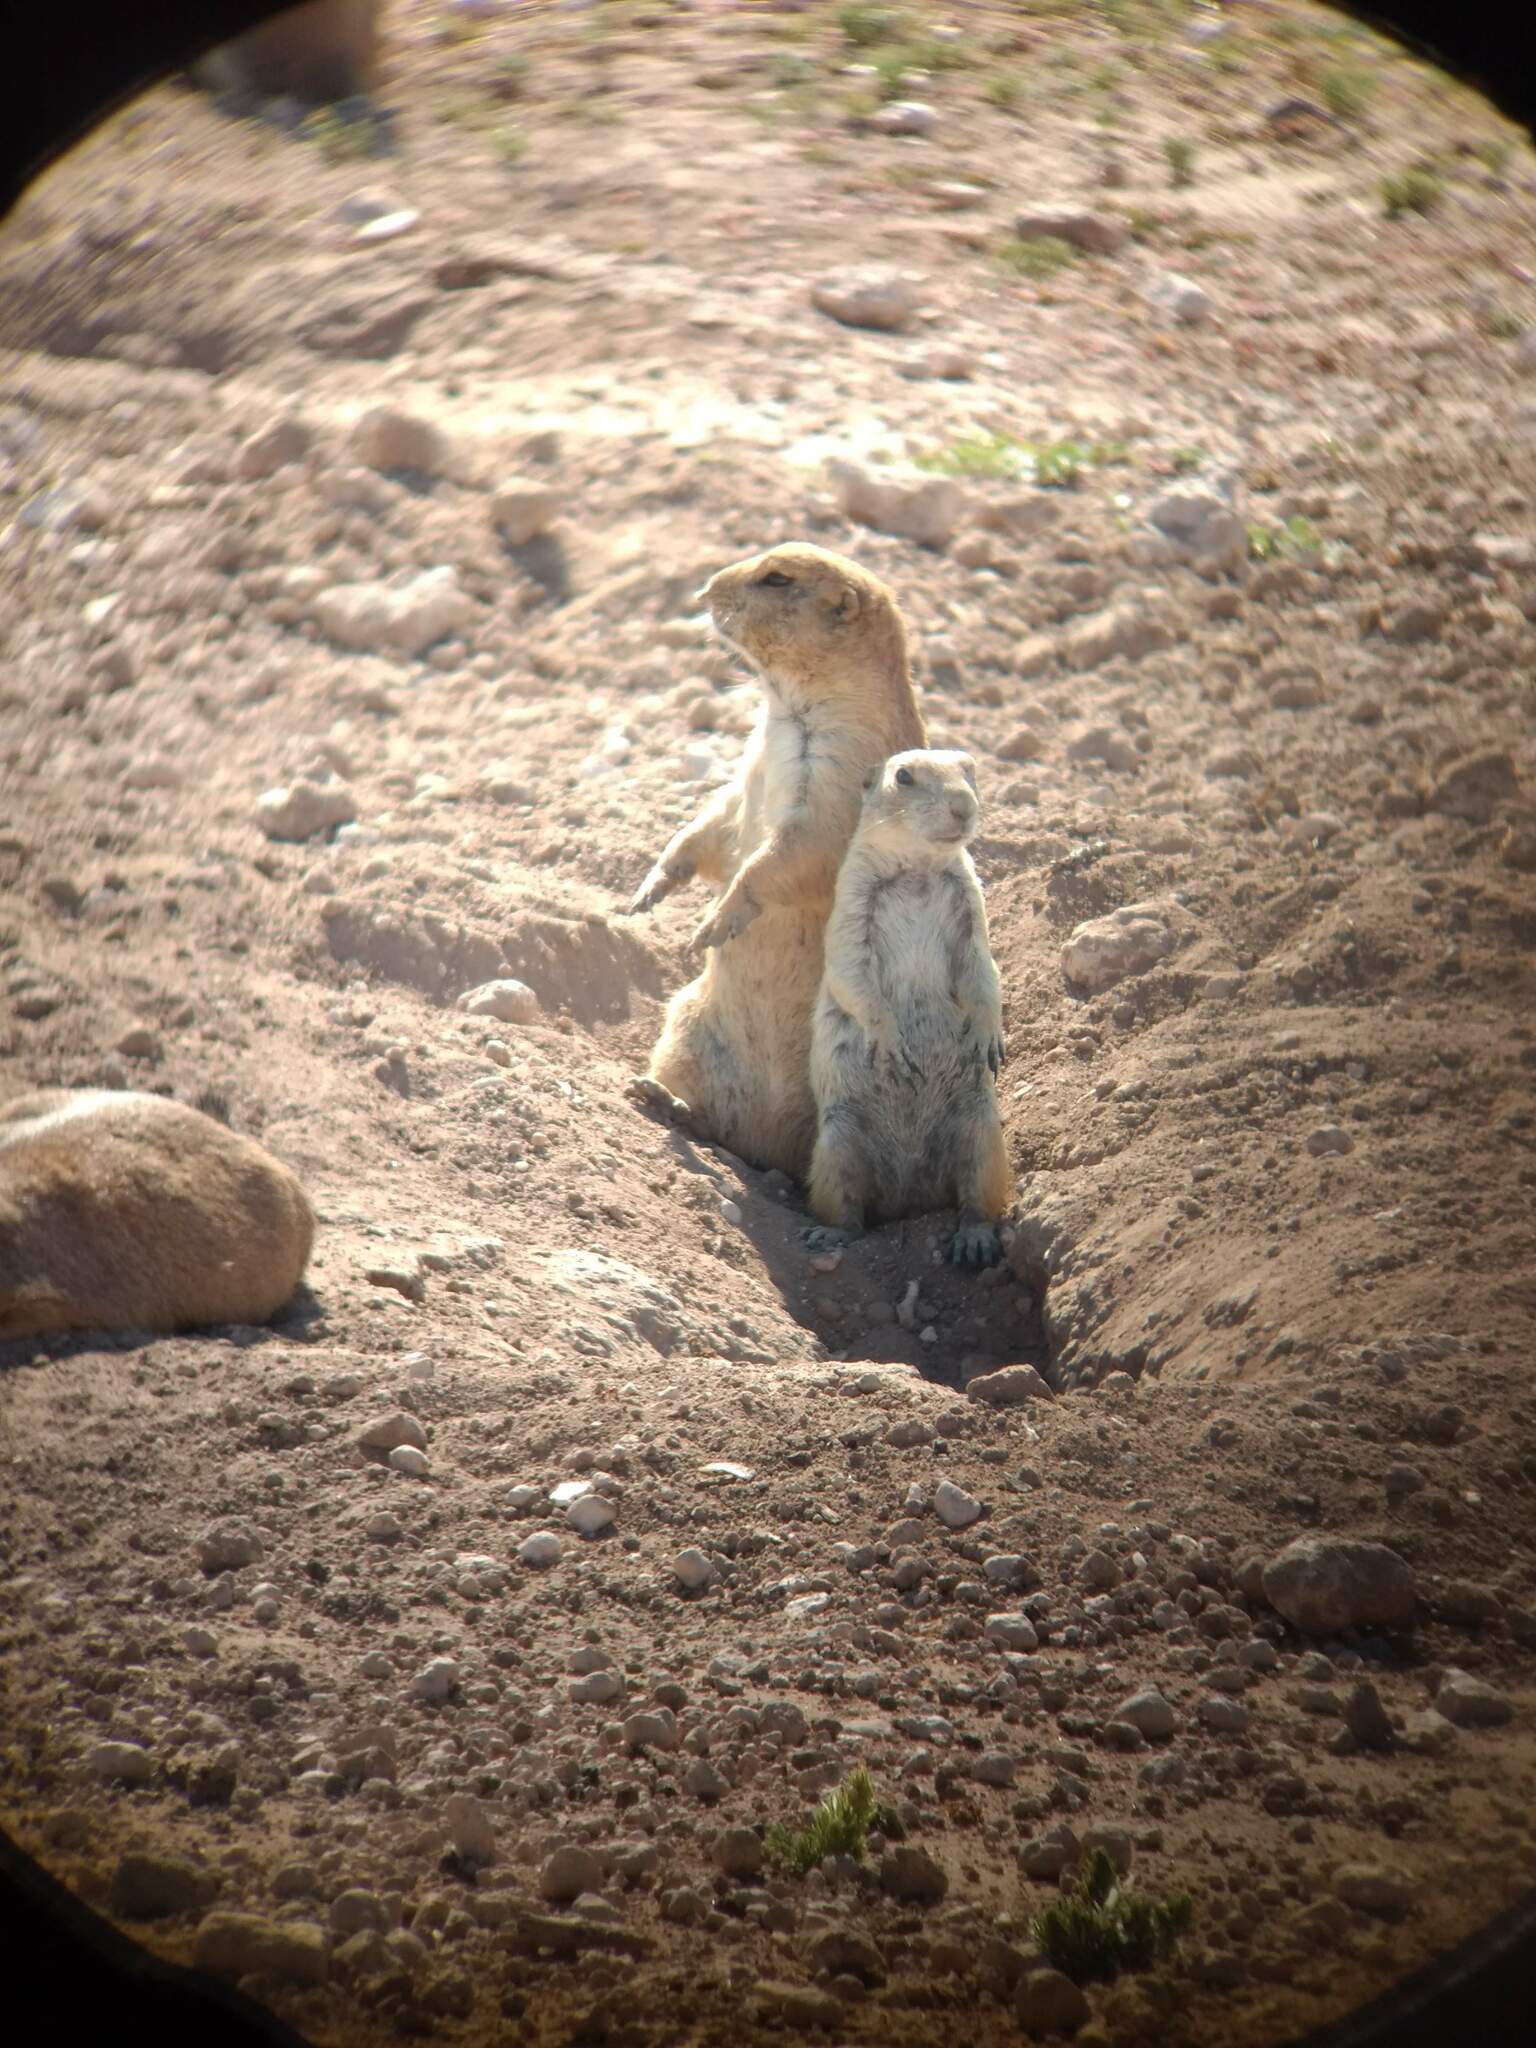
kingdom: Animalia
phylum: Chordata
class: Mammalia
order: Rodentia
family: Sciuridae
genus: Cynomys
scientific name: Cynomys ludovicianus
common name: Black-tailed prairie dog
